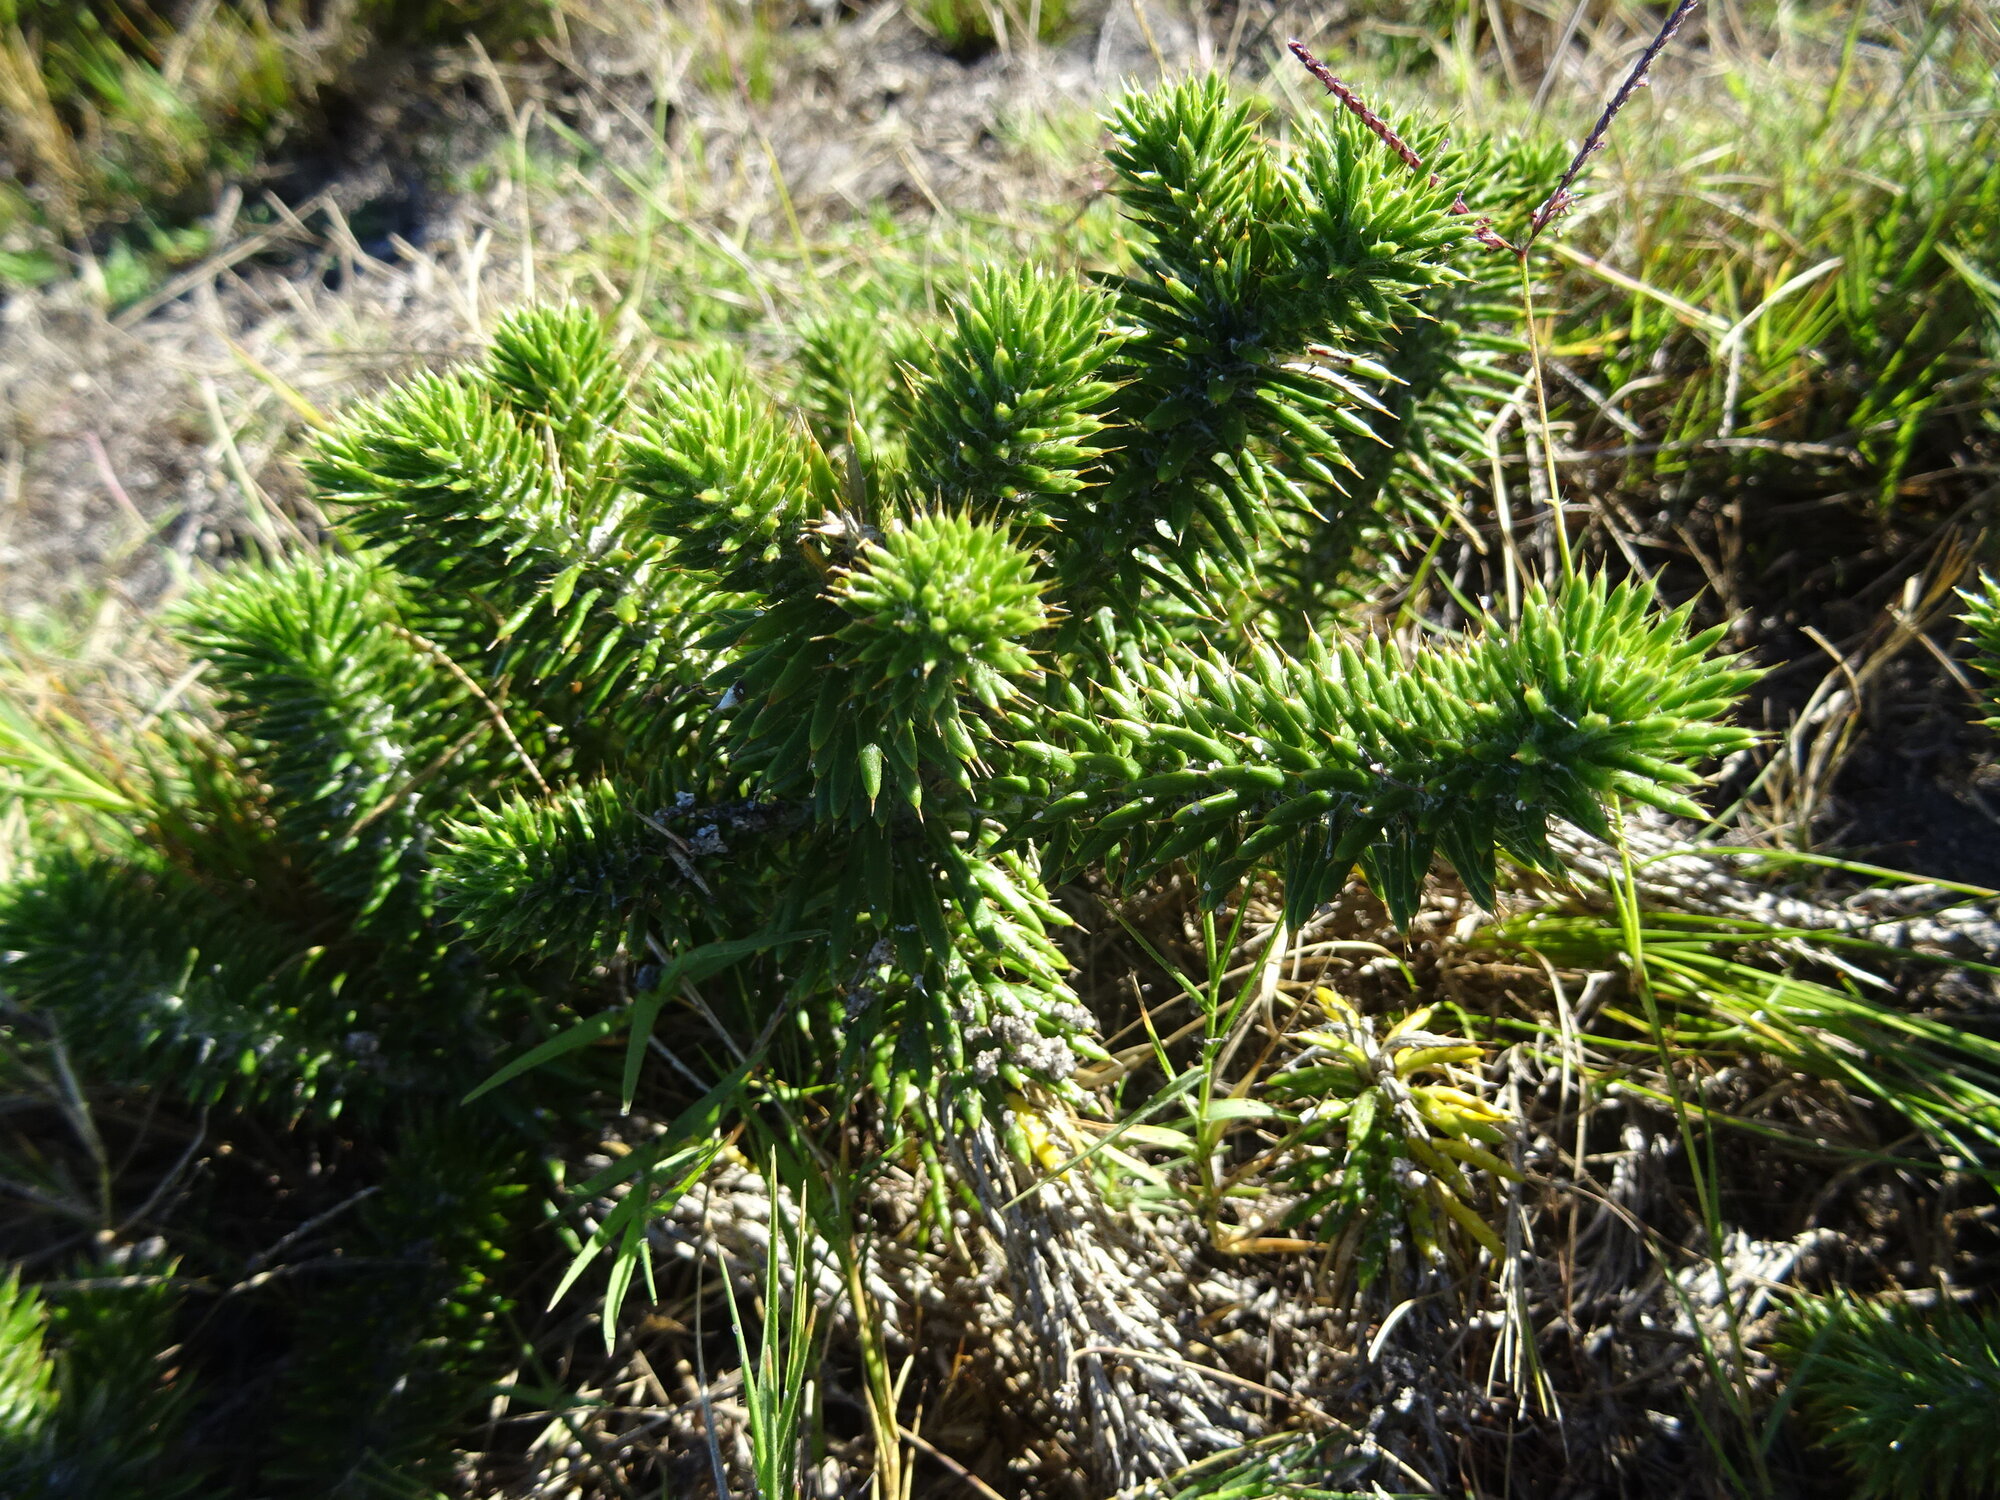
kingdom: Plantae
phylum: Tracheophyta
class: Magnoliopsida
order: Asterales
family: Asteraceae
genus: Cullumia
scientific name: Cullumia squarrosa
